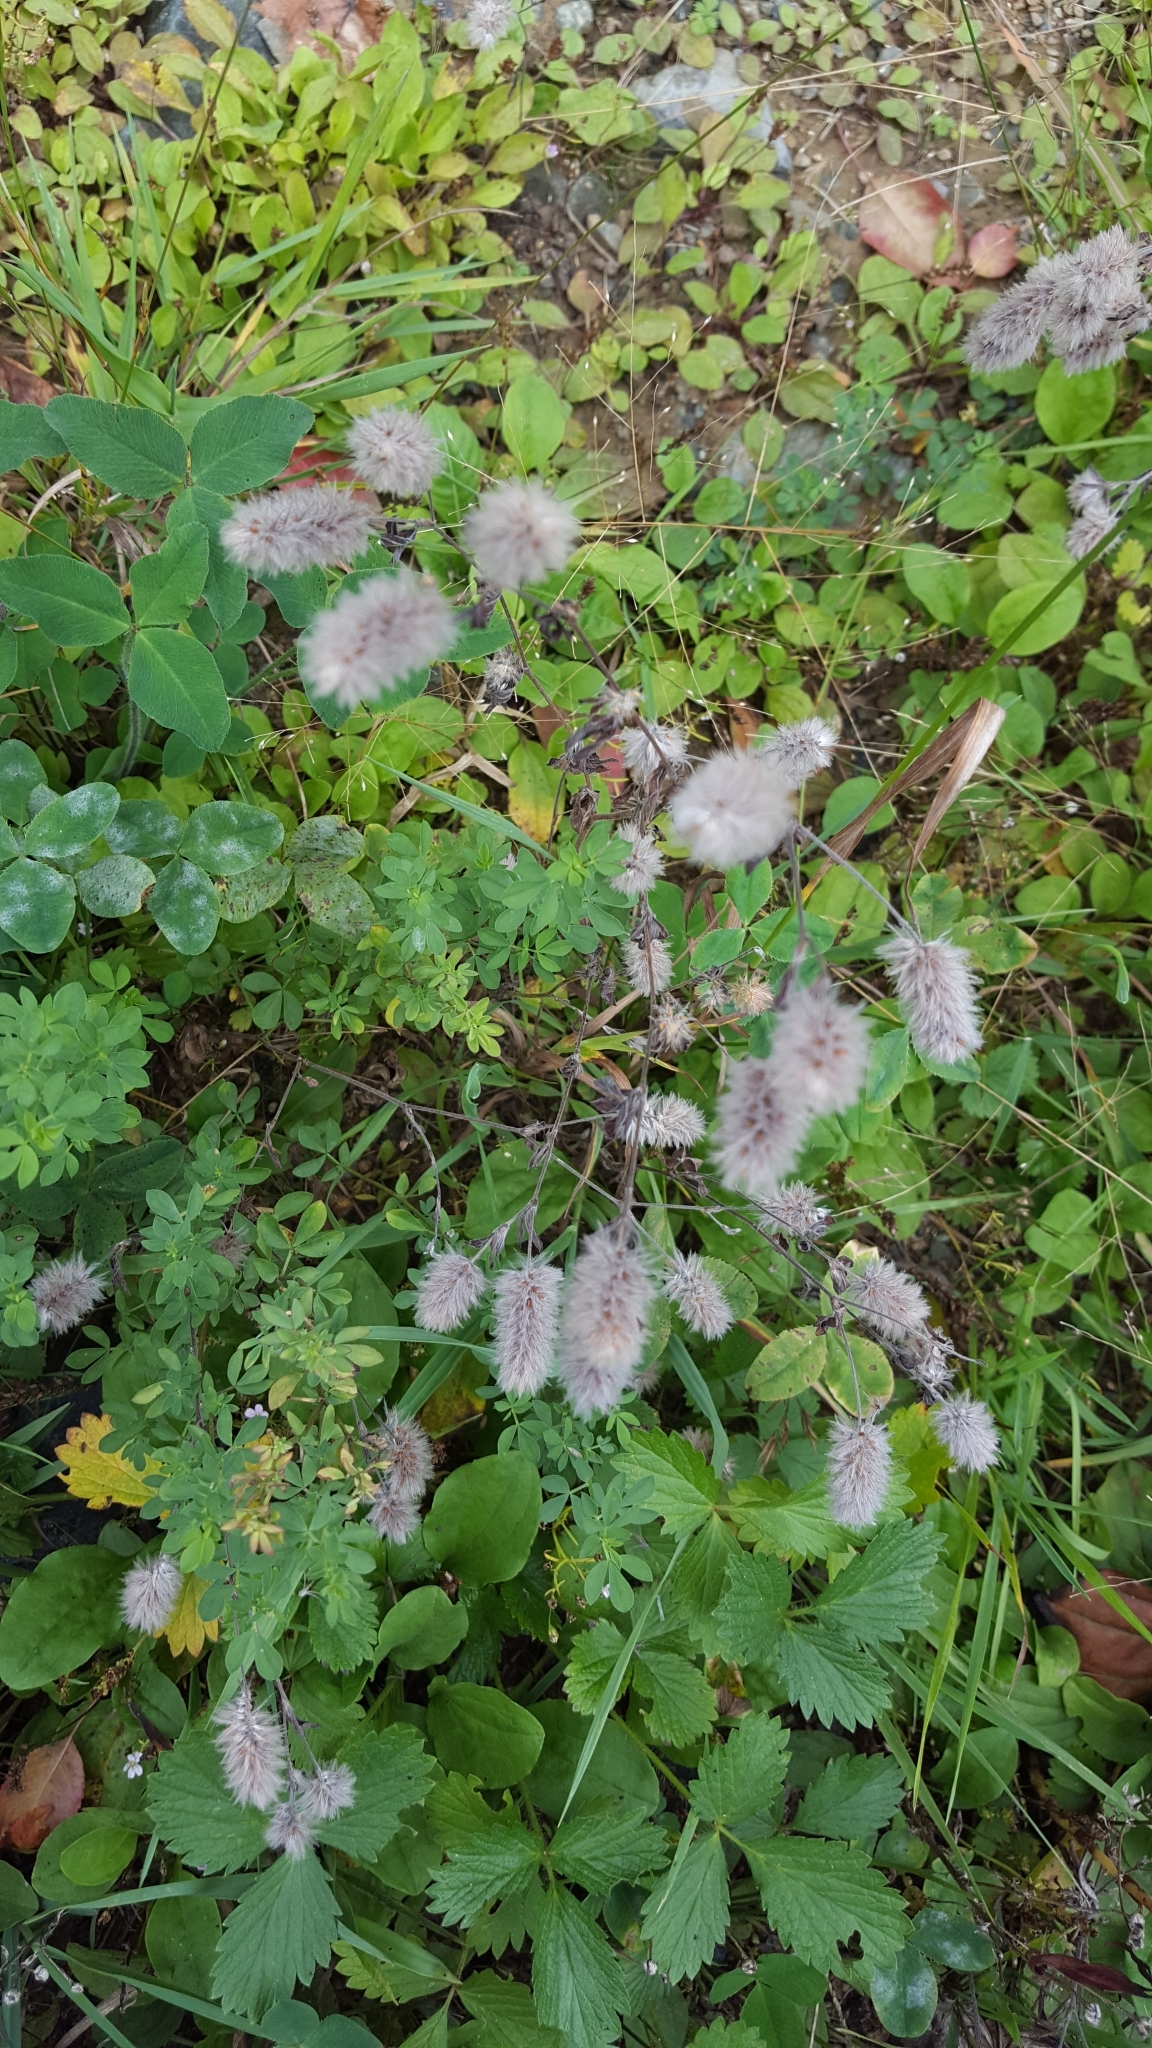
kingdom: Plantae
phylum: Tracheophyta
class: Magnoliopsida
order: Fabales
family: Fabaceae
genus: Trifolium
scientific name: Trifolium arvense
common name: Hare's-foot clover
